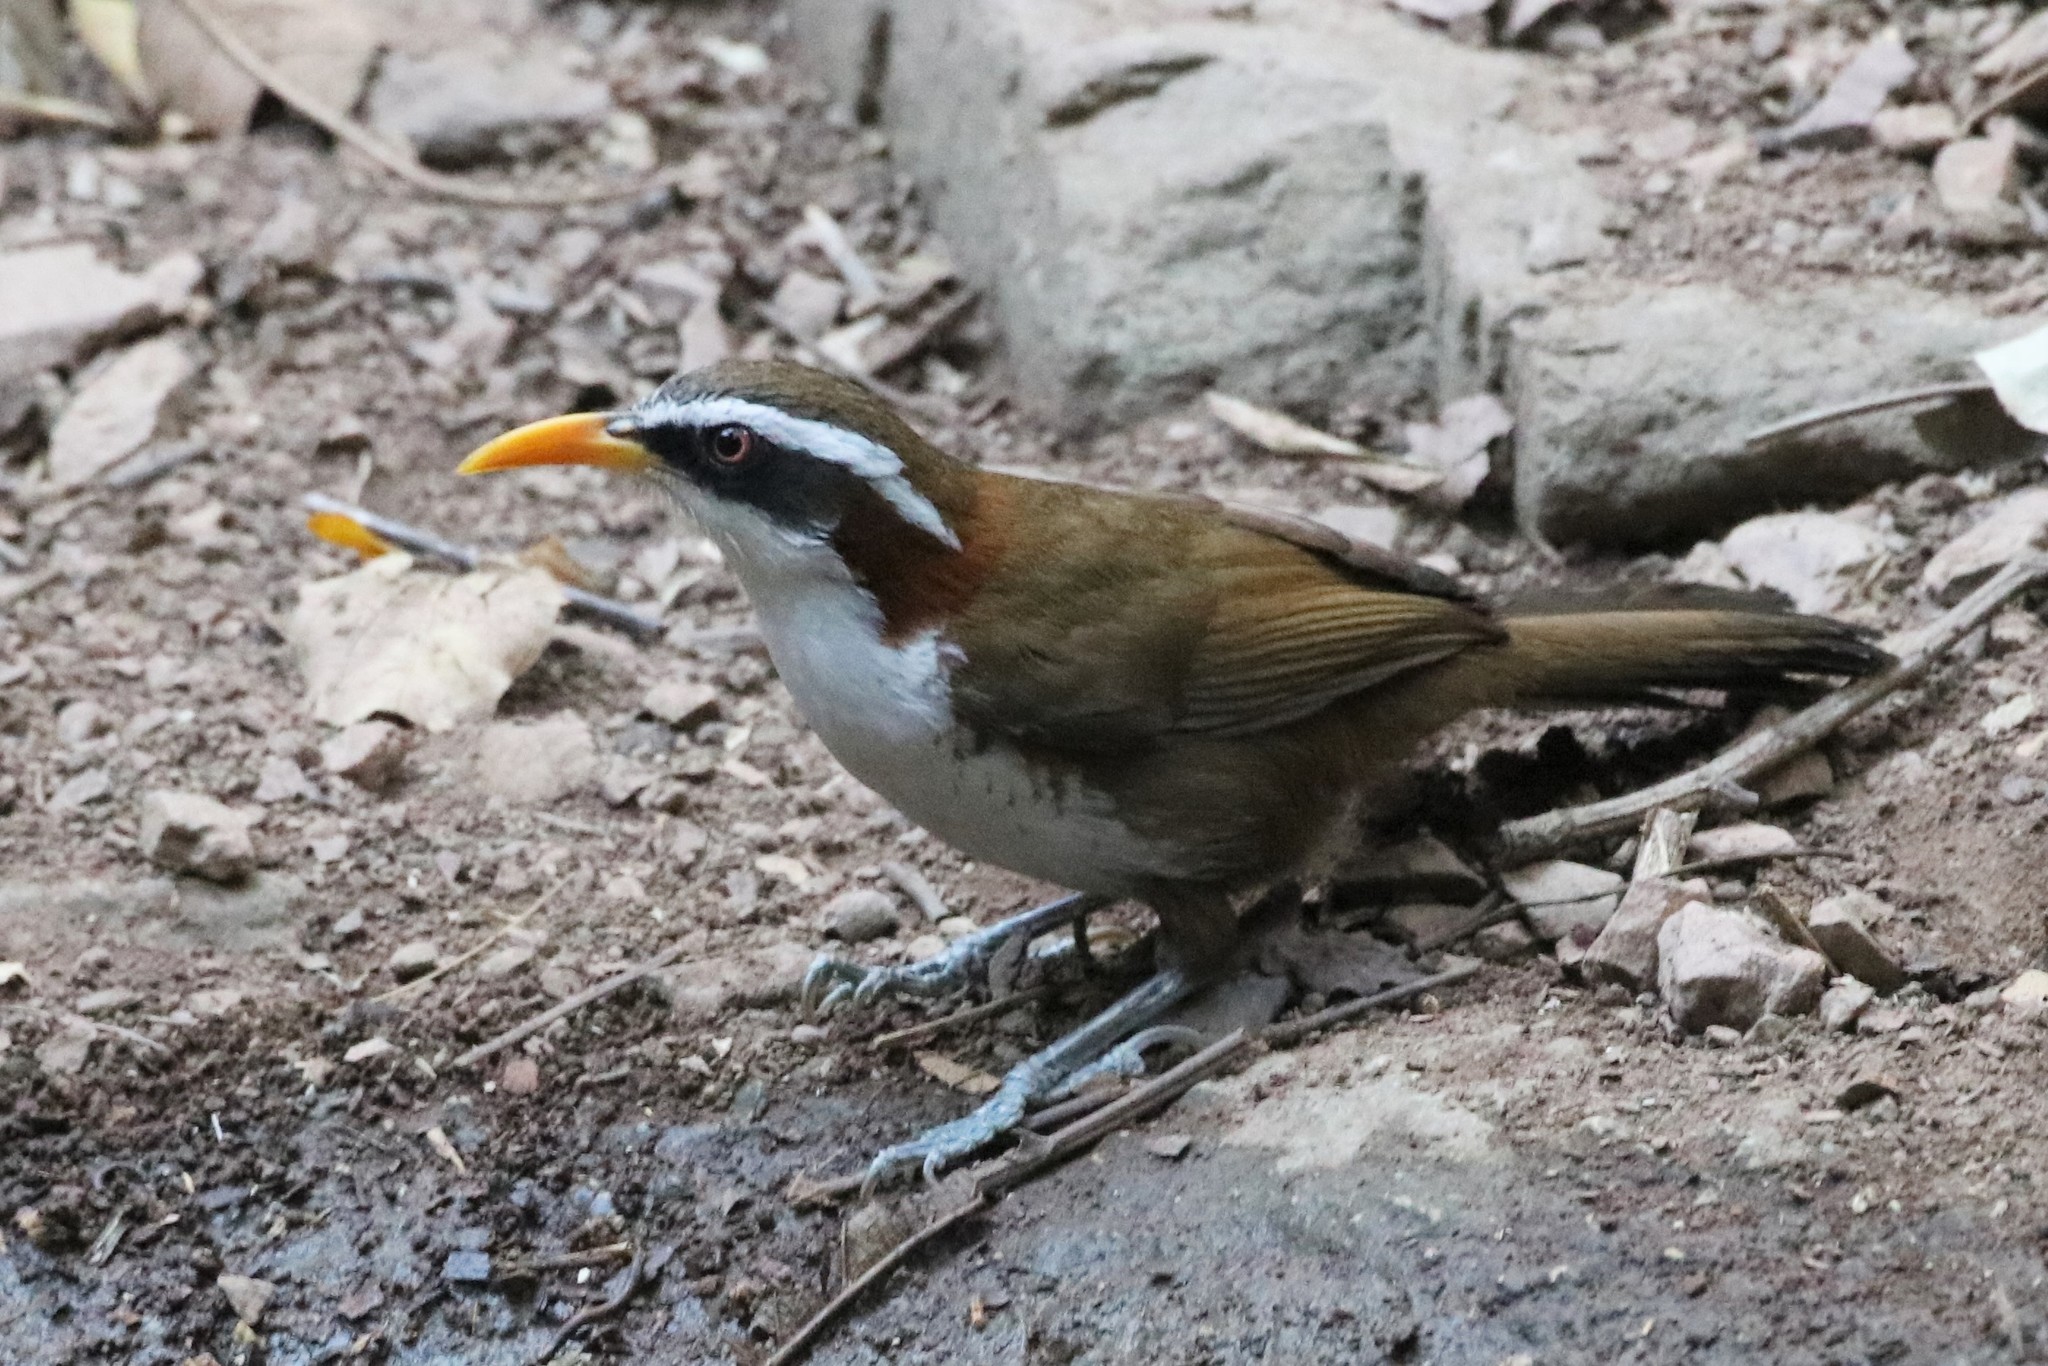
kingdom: Animalia
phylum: Chordata
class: Aves
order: Passeriformes
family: Timaliidae
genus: Pomatorhinus
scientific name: Pomatorhinus schisticeps
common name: White-browed scimitar babbler
